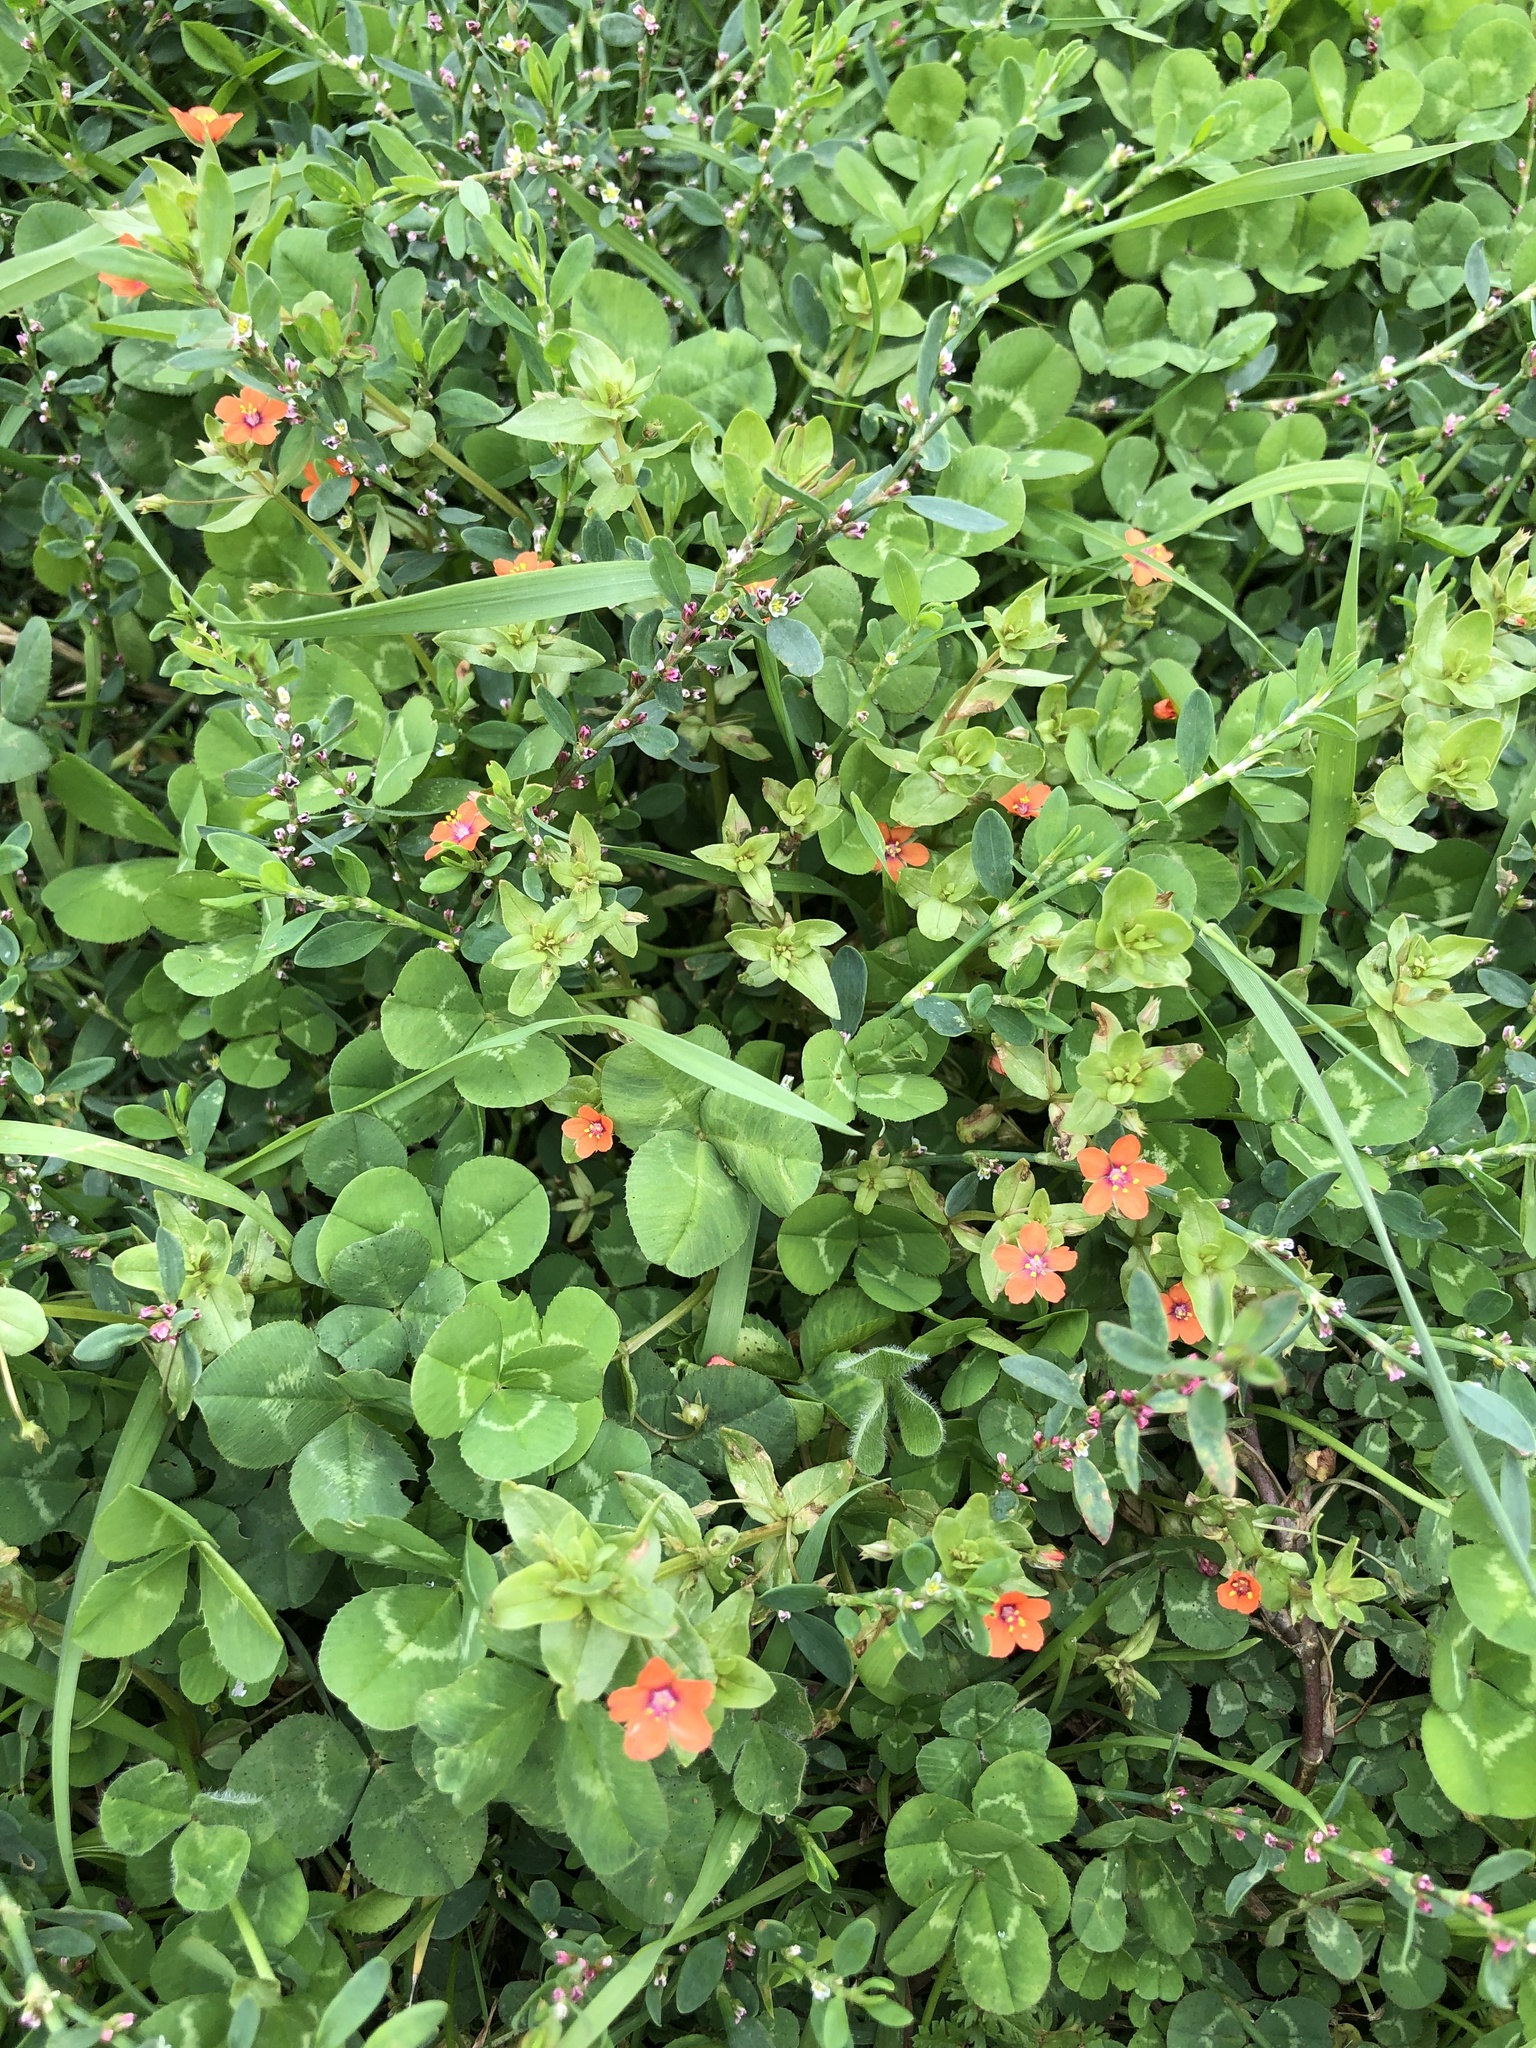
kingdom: Plantae
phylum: Tracheophyta
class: Magnoliopsida
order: Ericales
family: Primulaceae
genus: Lysimachia
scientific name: Lysimachia arvensis
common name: Scarlet pimpernel
